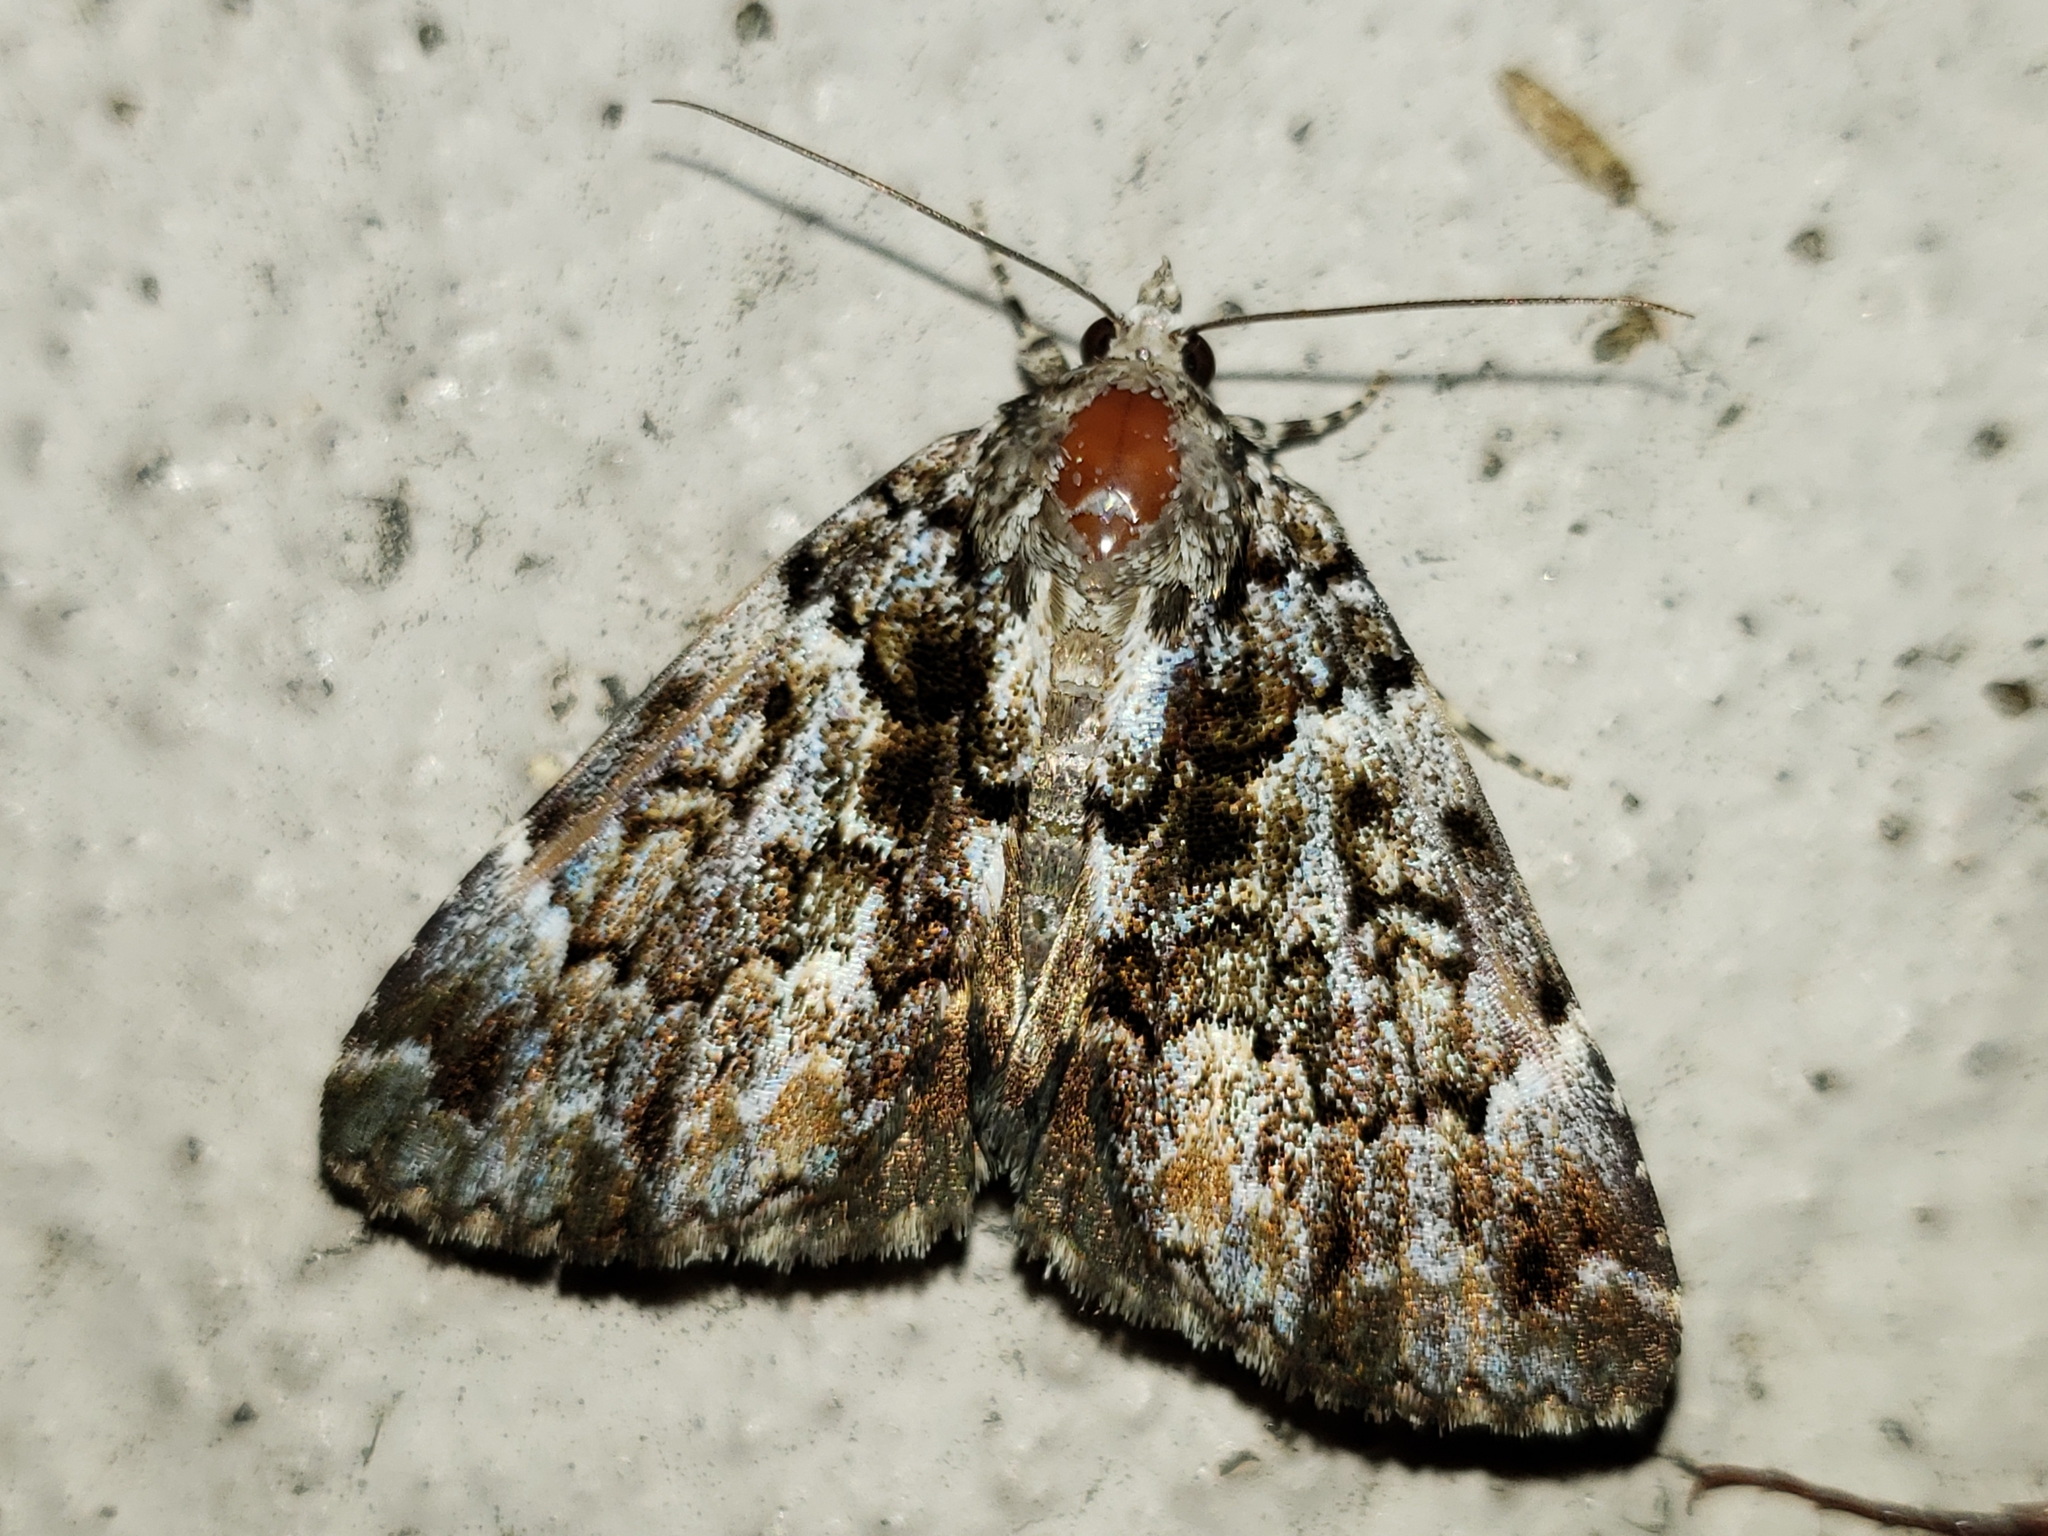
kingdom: Animalia
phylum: Arthropoda
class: Insecta
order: Lepidoptera
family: Erebidae
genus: Allotria
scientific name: Allotria elonympha
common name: False underwing
